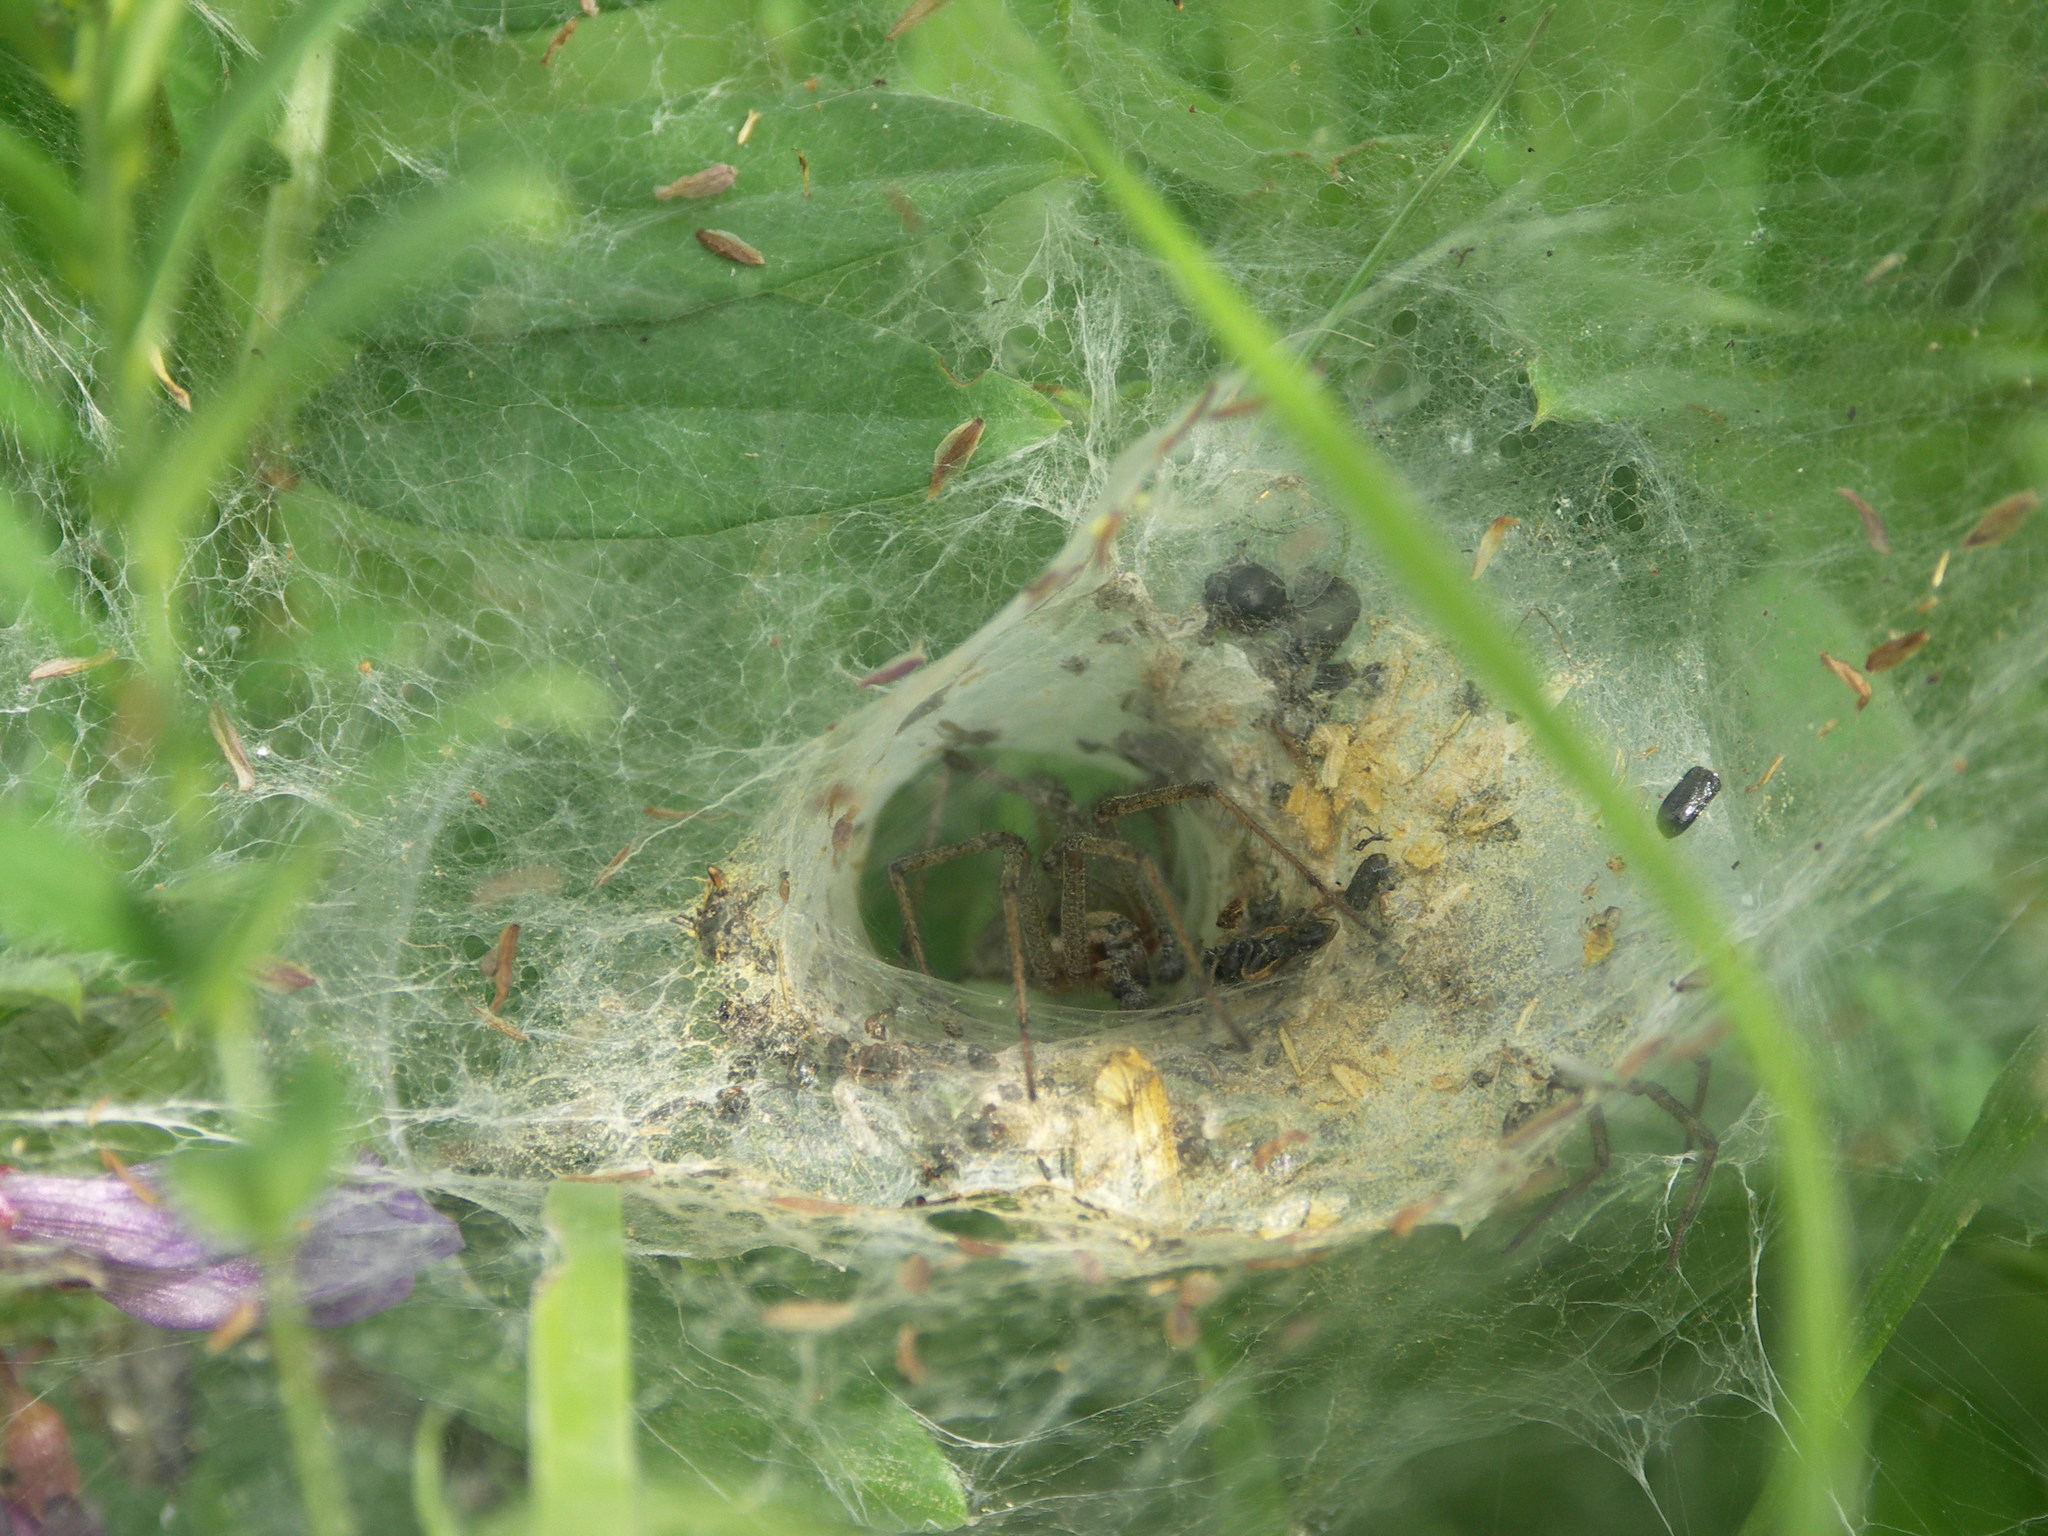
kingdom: Animalia
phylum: Arthropoda
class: Arachnida
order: Araneae
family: Agelenidae
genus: Agelena
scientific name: Agelena labyrinthica
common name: Labyrinth spider
